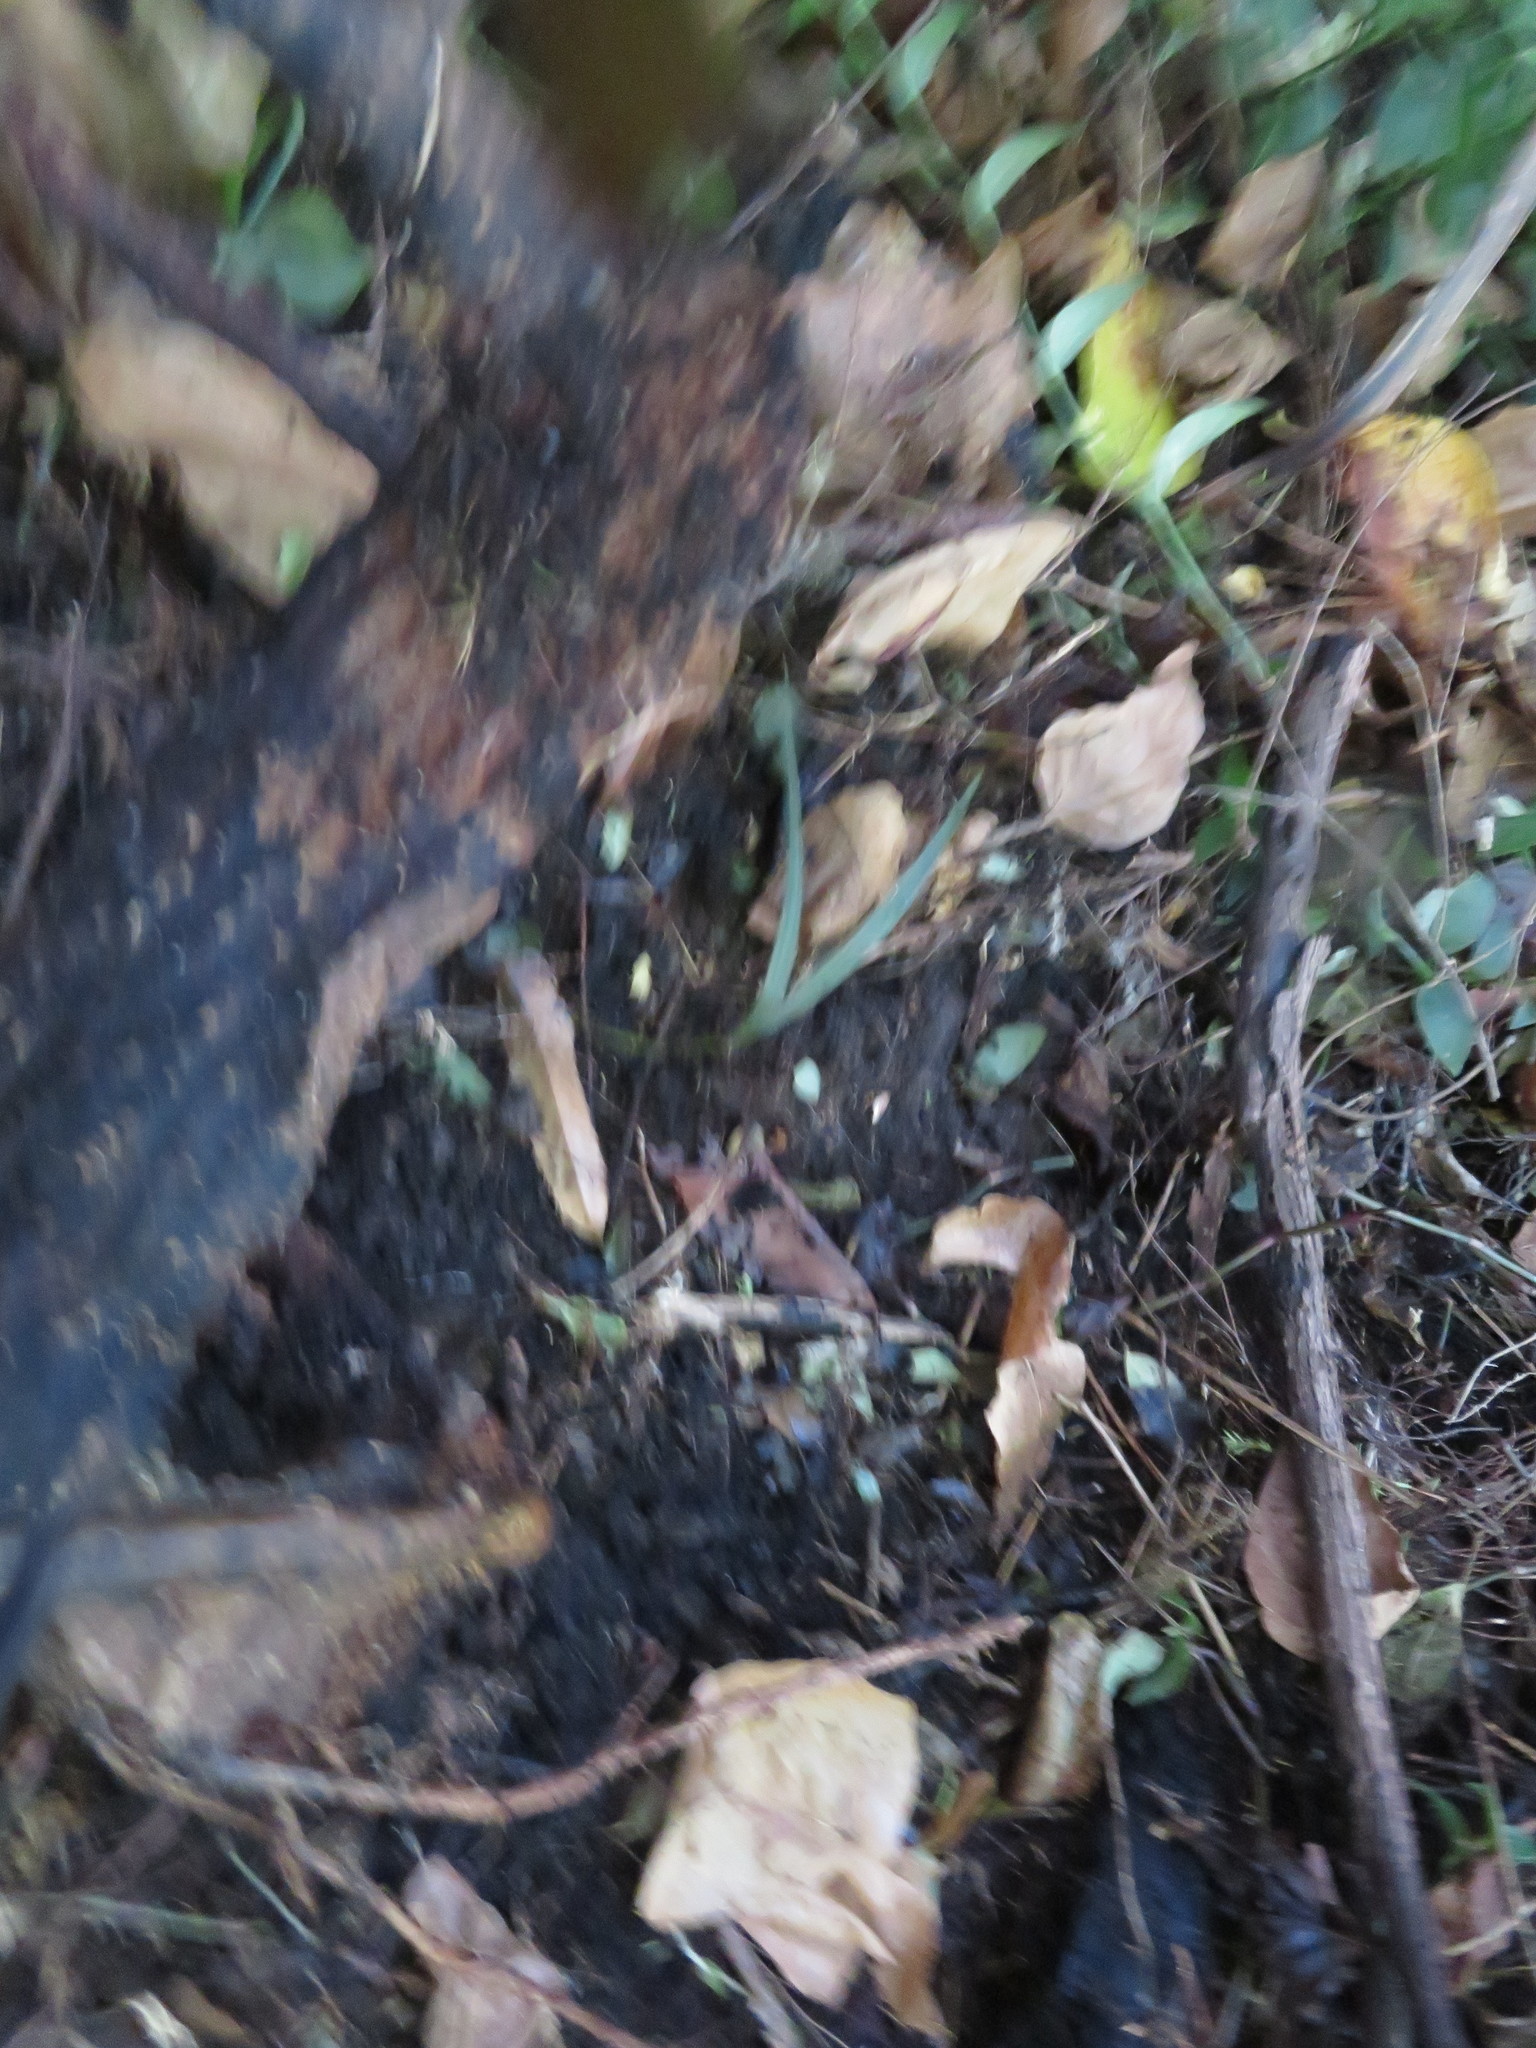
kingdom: Plantae
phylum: Tracheophyta
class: Liliopsida
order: Arecales
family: Arecaceae
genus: Rhopalostylis
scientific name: Rhopalostylis sapida
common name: Feather-duster palm
